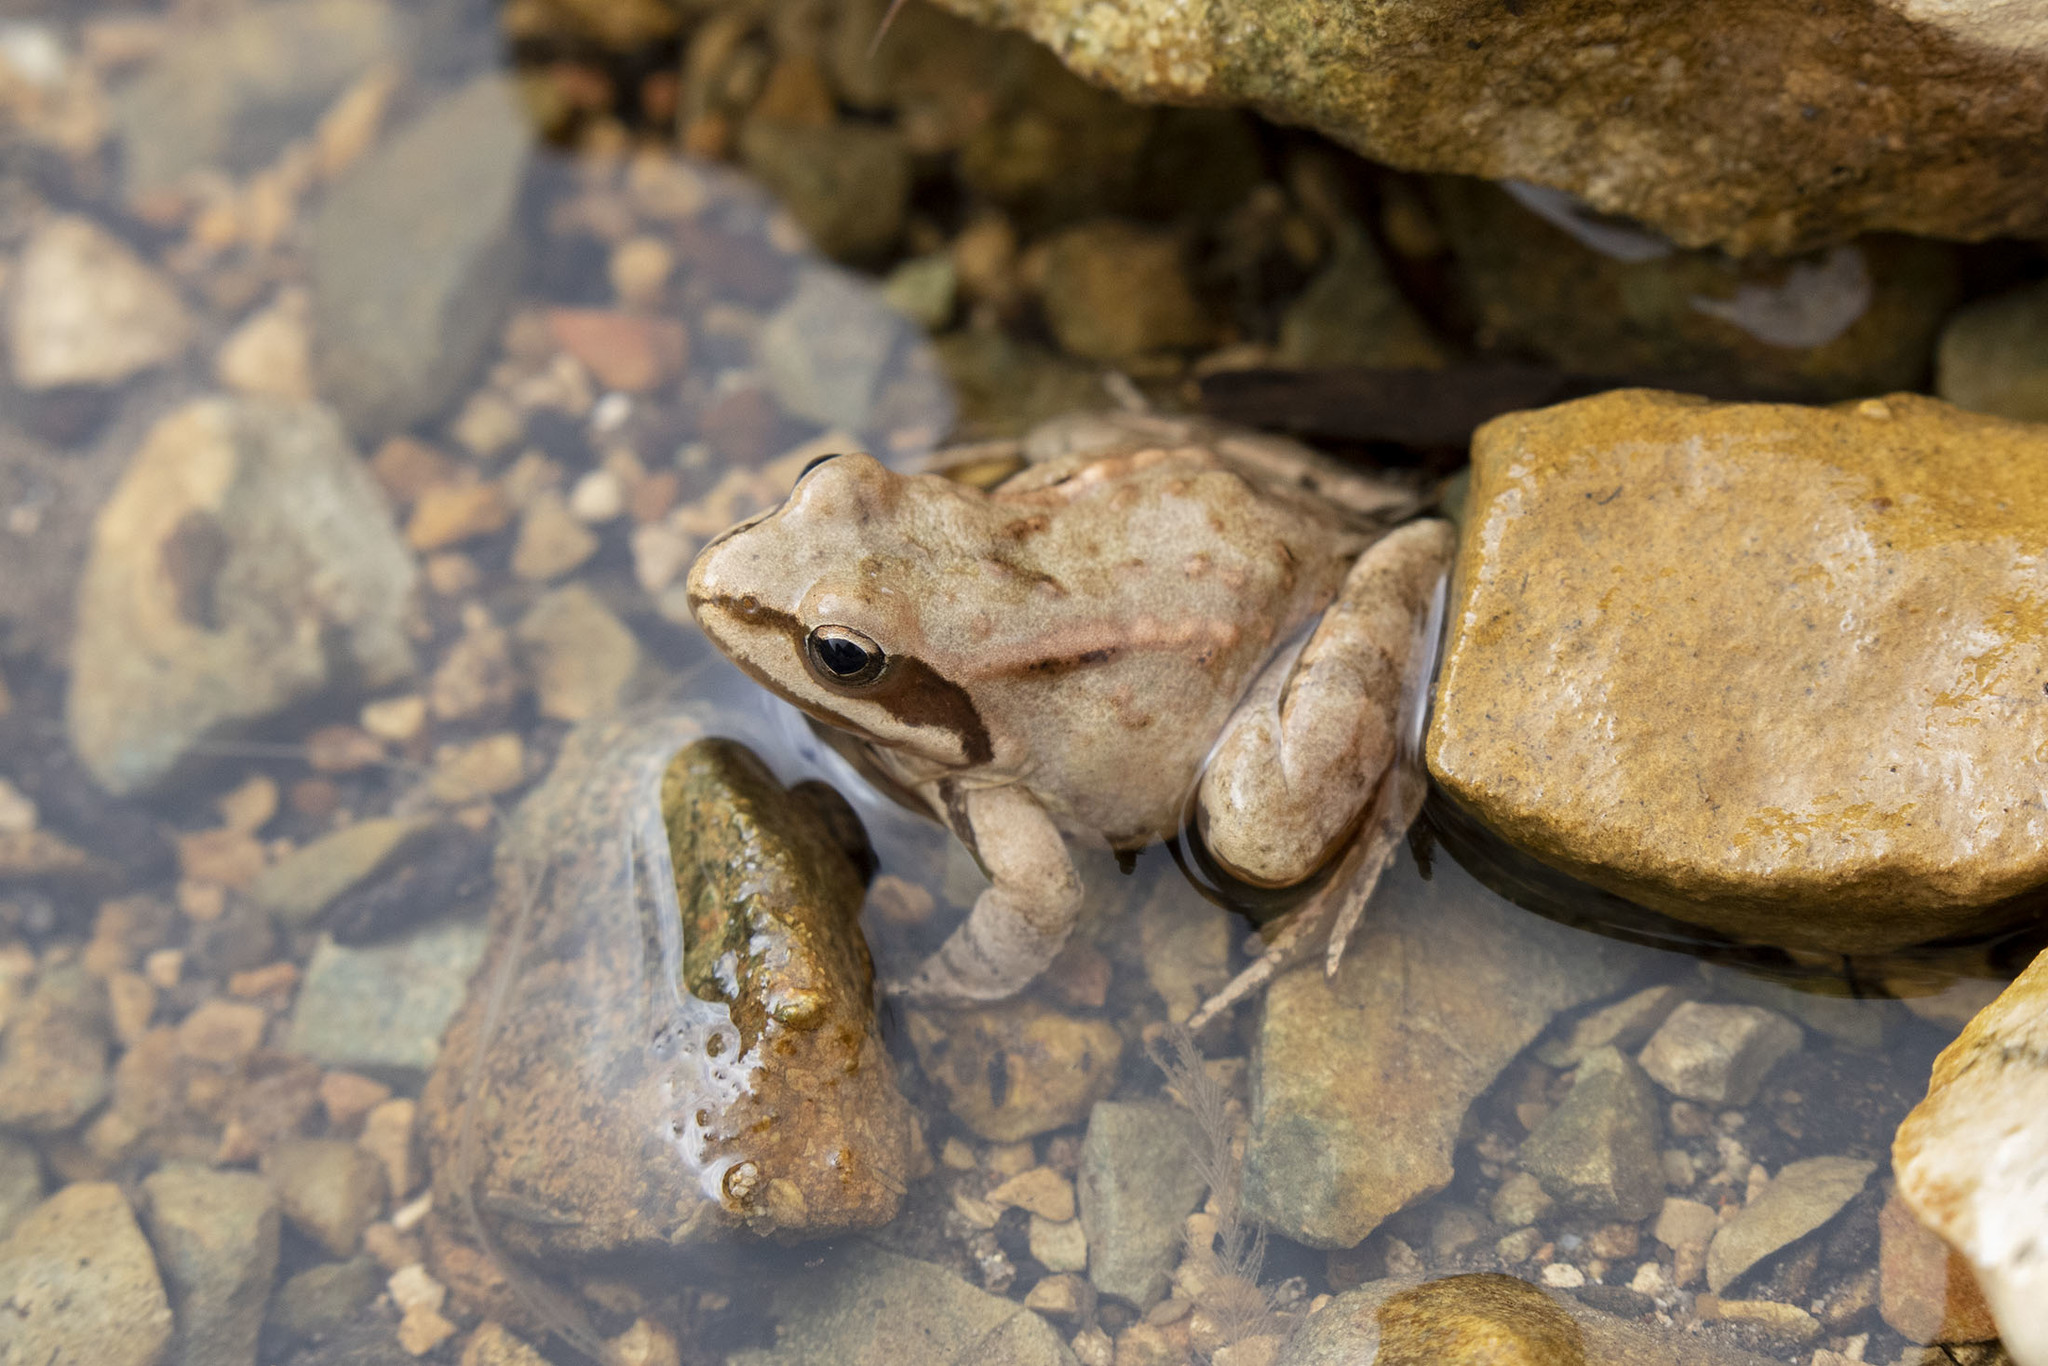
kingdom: Animalia
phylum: Chordata
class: Amphibia
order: Anura
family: Ranidae
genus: Rana
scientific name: Rana macrocnemis
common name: Banded frog
